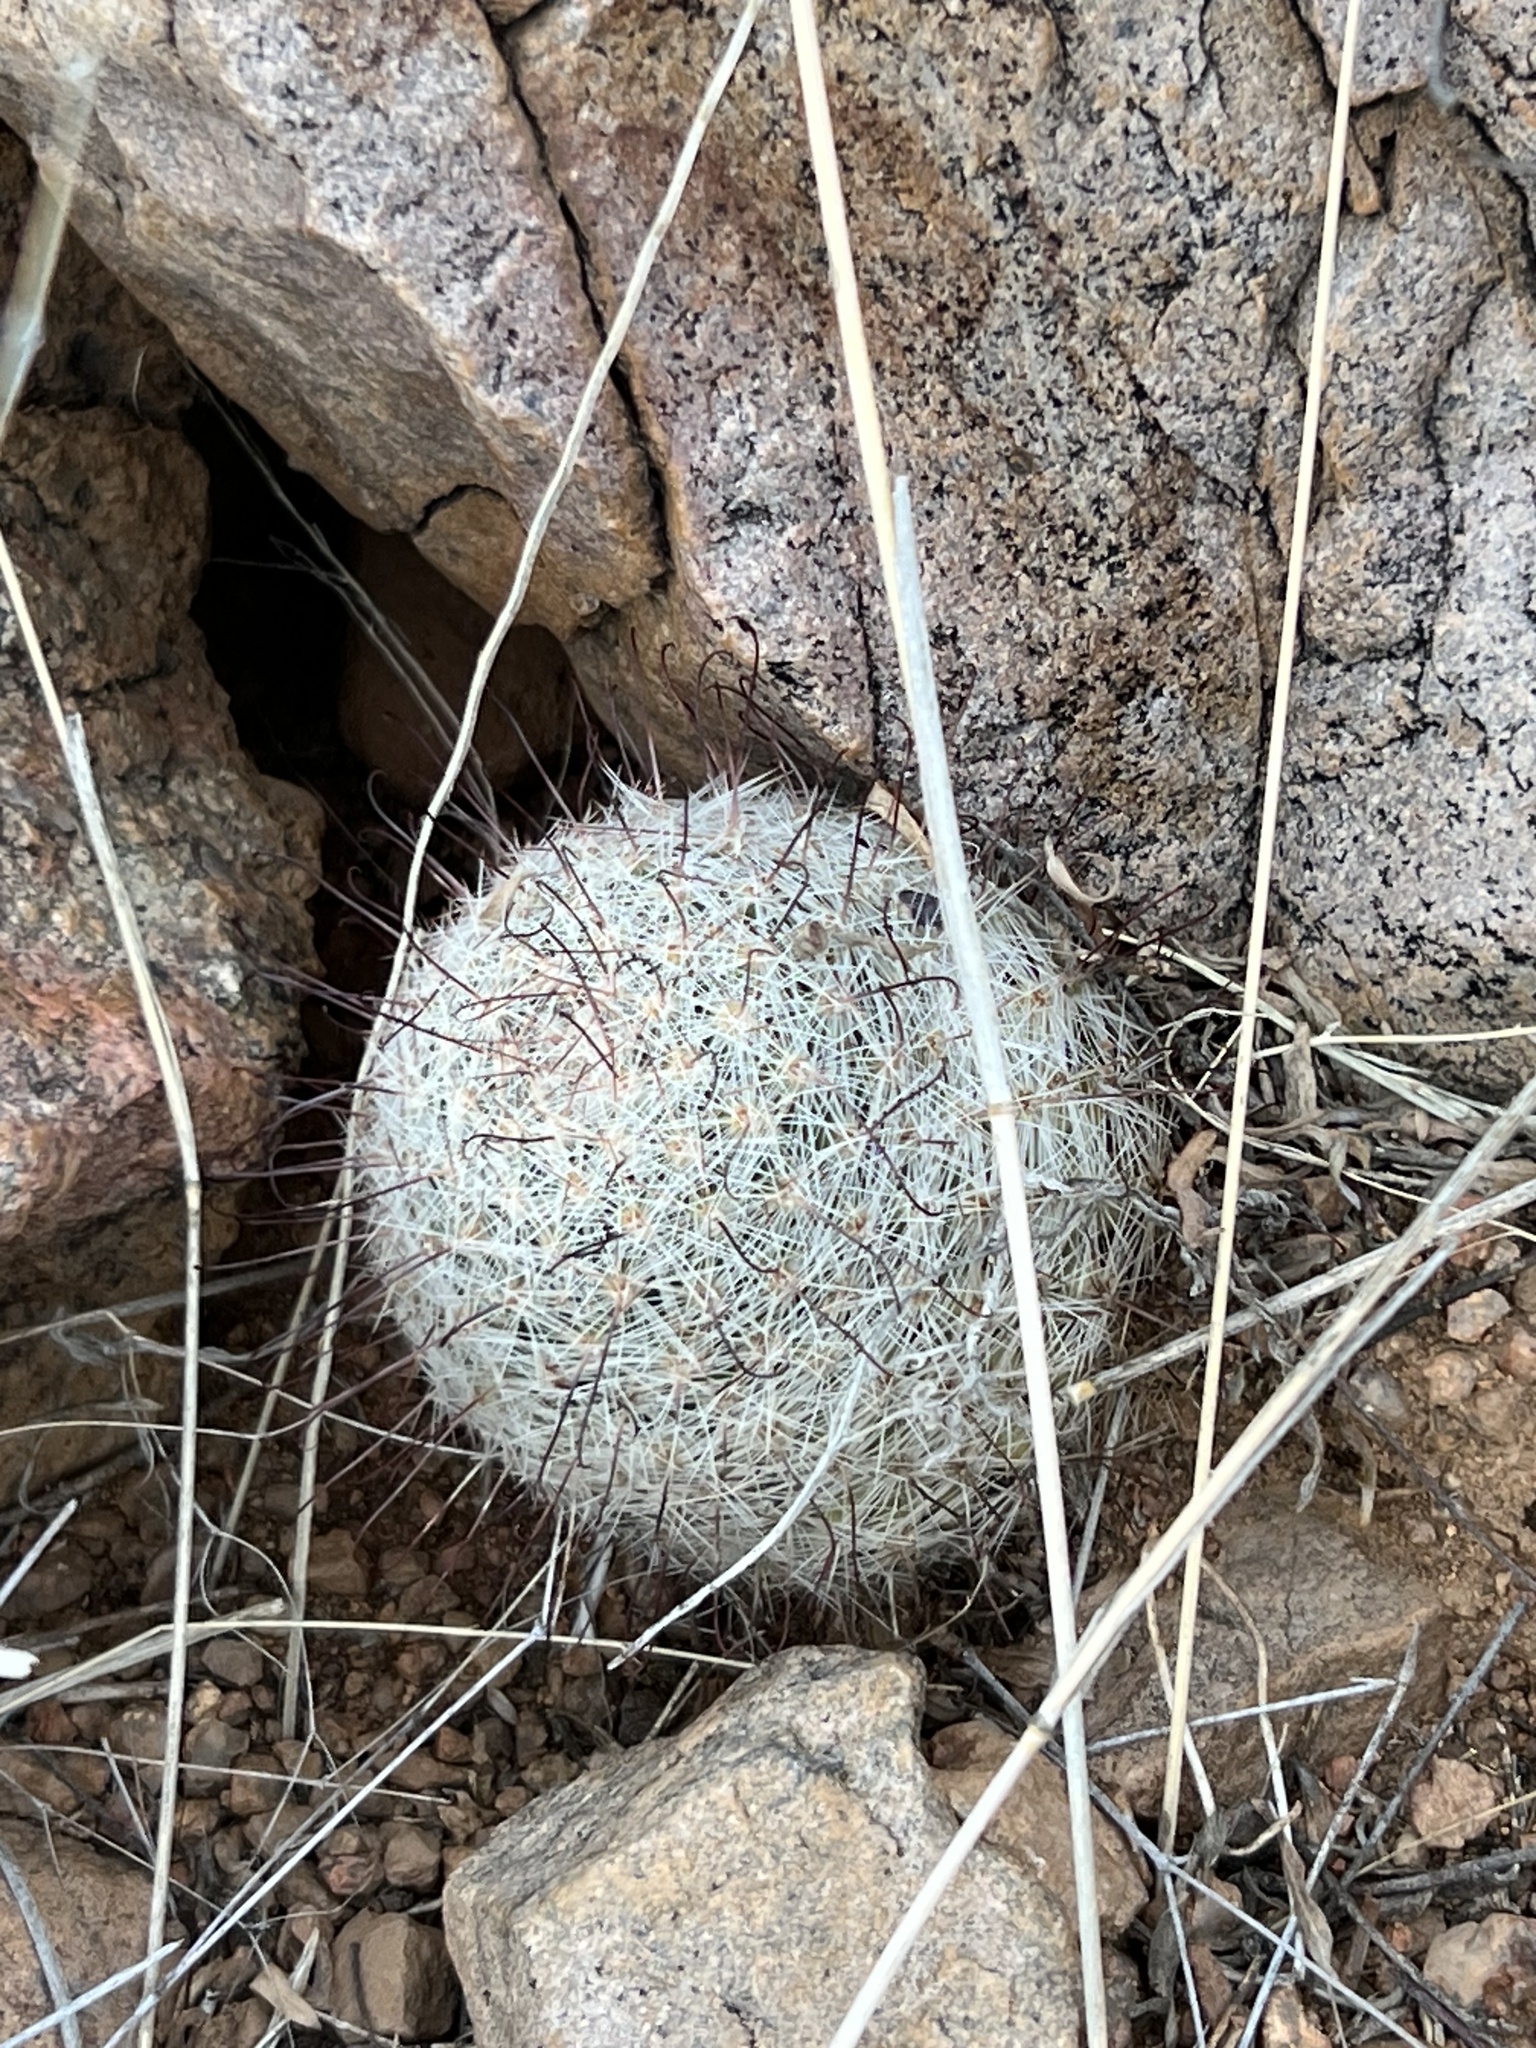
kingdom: Plantae
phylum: Tracheophyta
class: Magnoliopsida
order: Caryophyllales
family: Cactaceae
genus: Cochemiea
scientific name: Cochemiea grahamii
